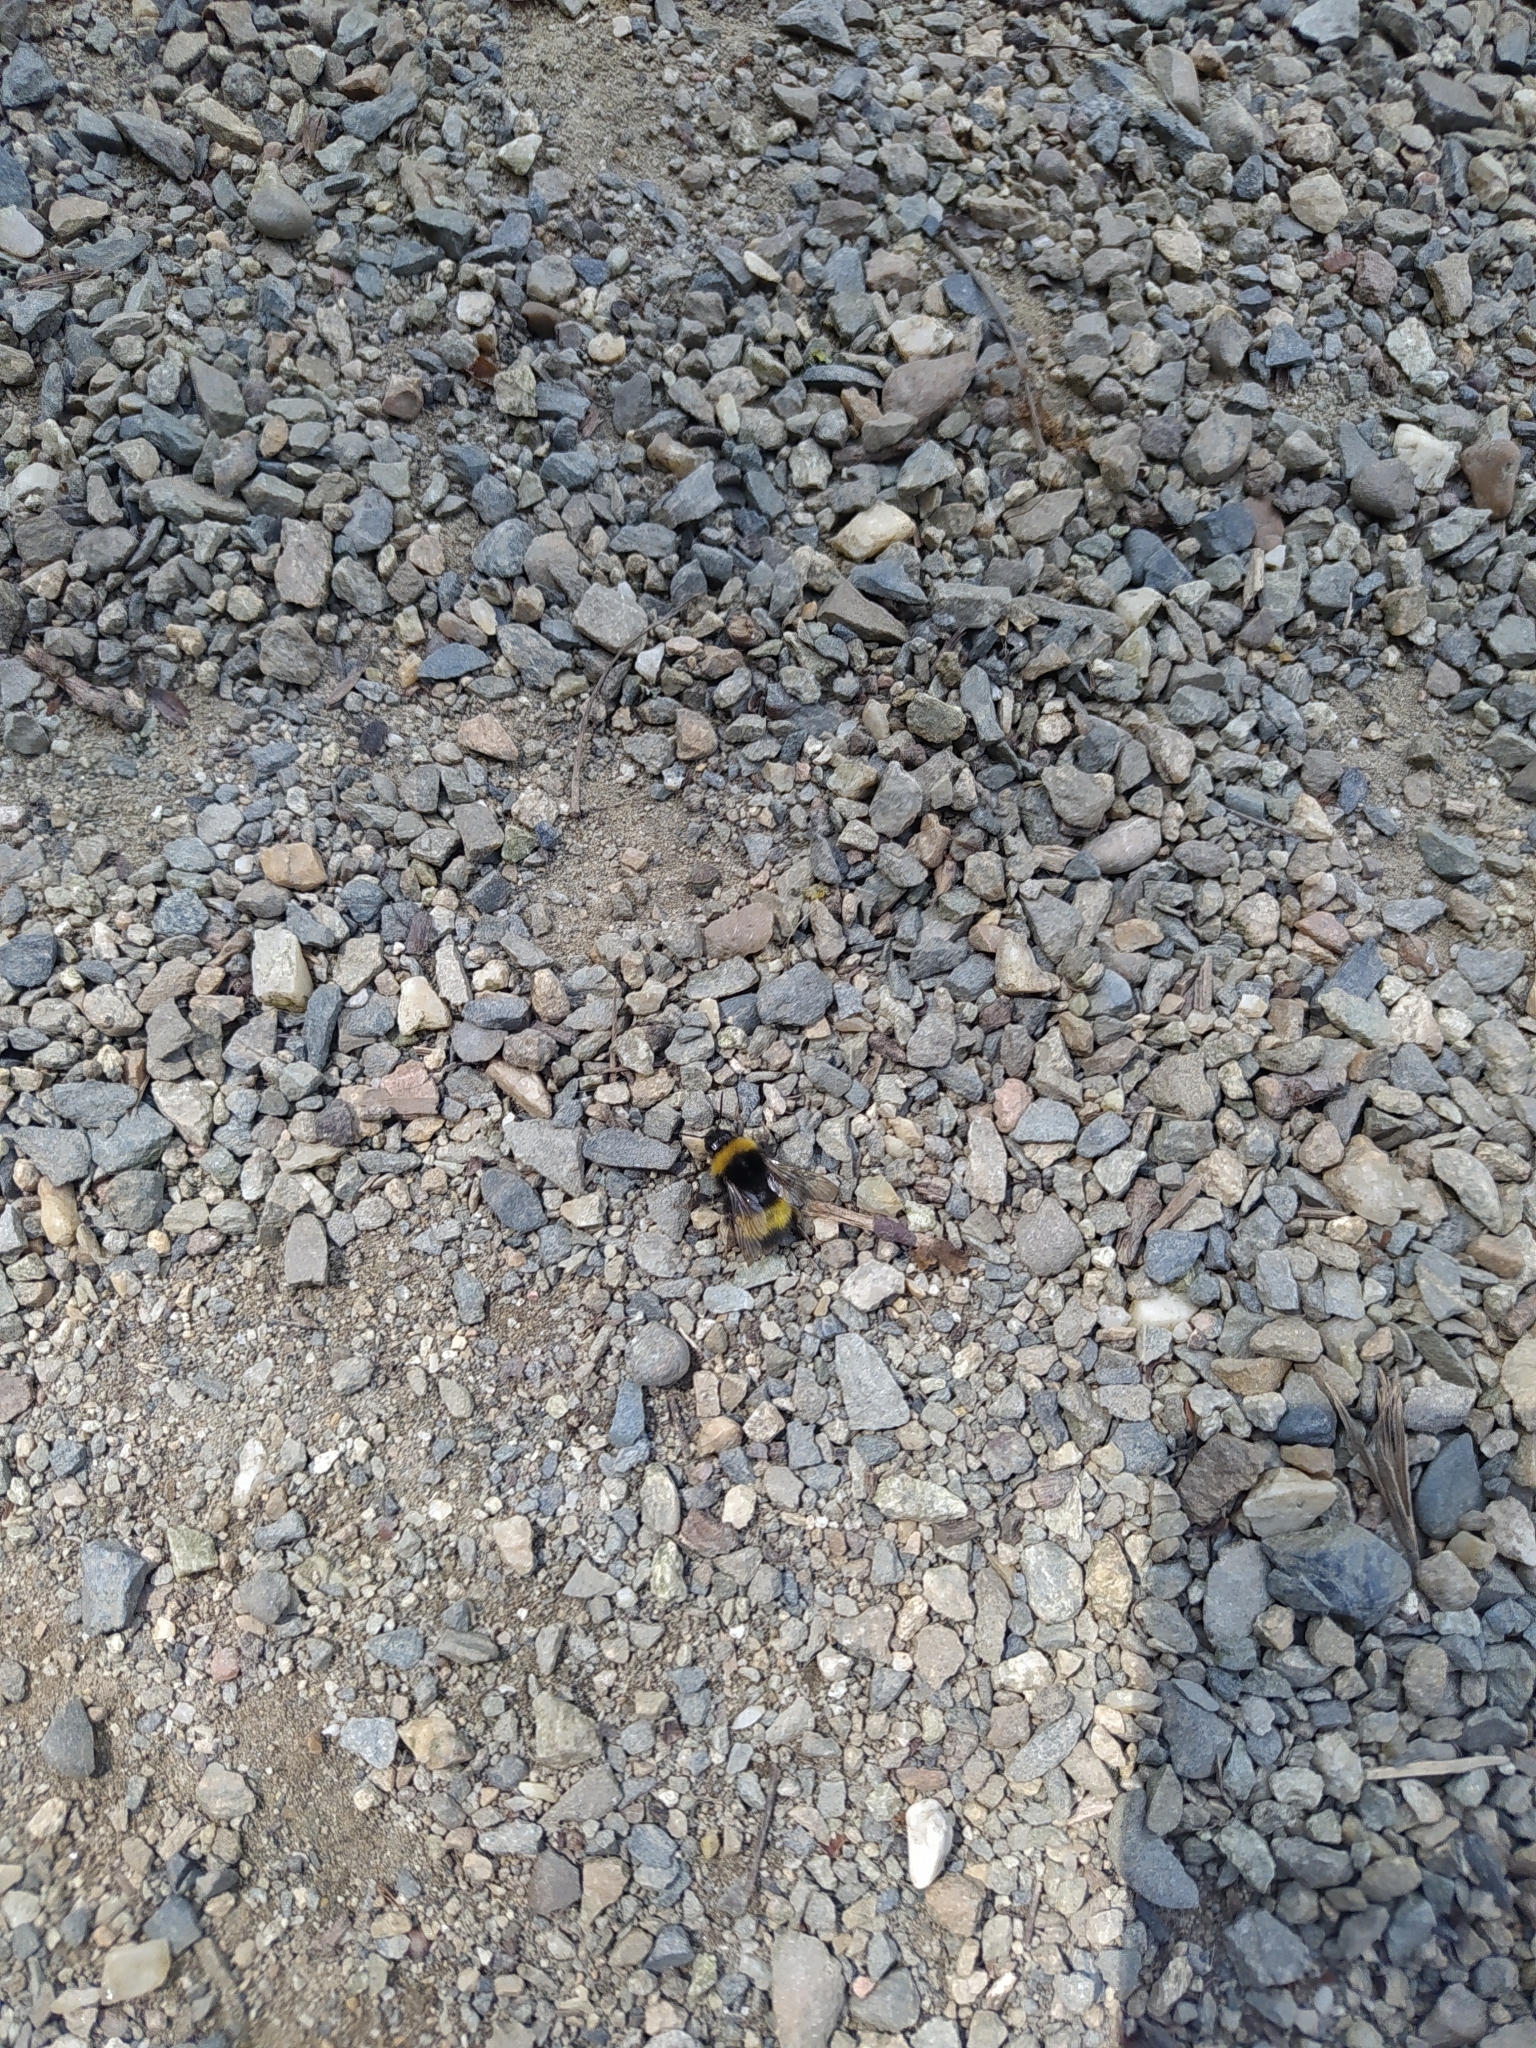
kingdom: Animalia
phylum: Arthropoda
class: Insecta
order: Hymenoptera
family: Apidae
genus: Bombus
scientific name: Bombus haematurus
